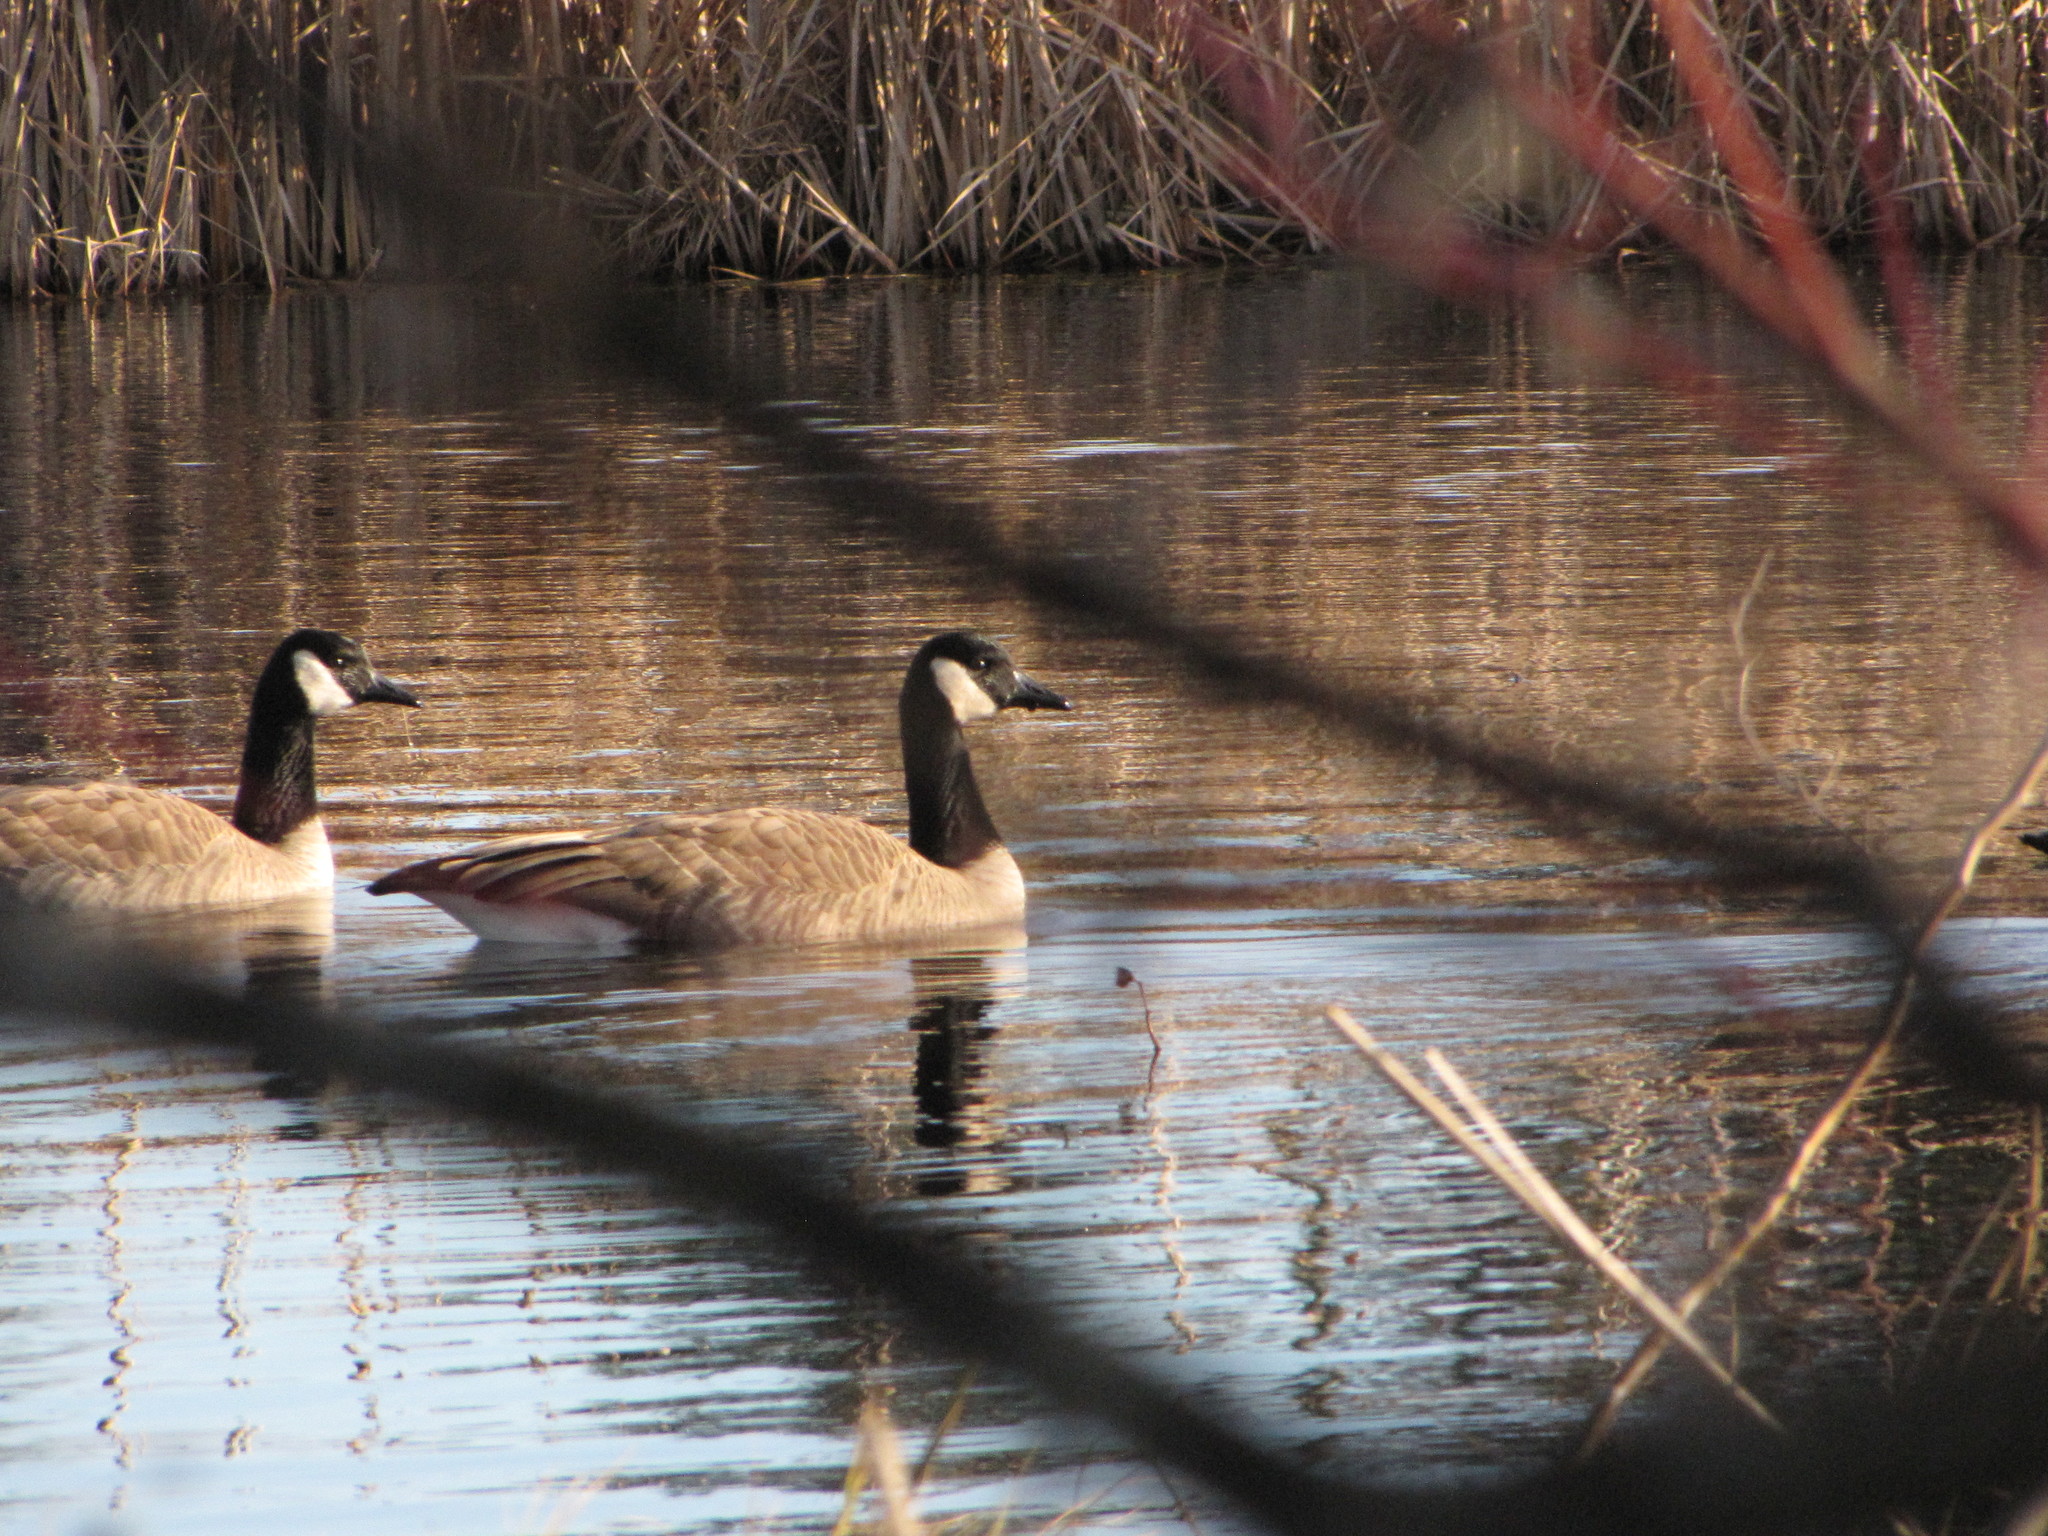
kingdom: Animalia
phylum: Chordata
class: Aves
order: Anseriformes
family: Anatidae
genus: Branta
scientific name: Branta canadensis
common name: Canada goose
